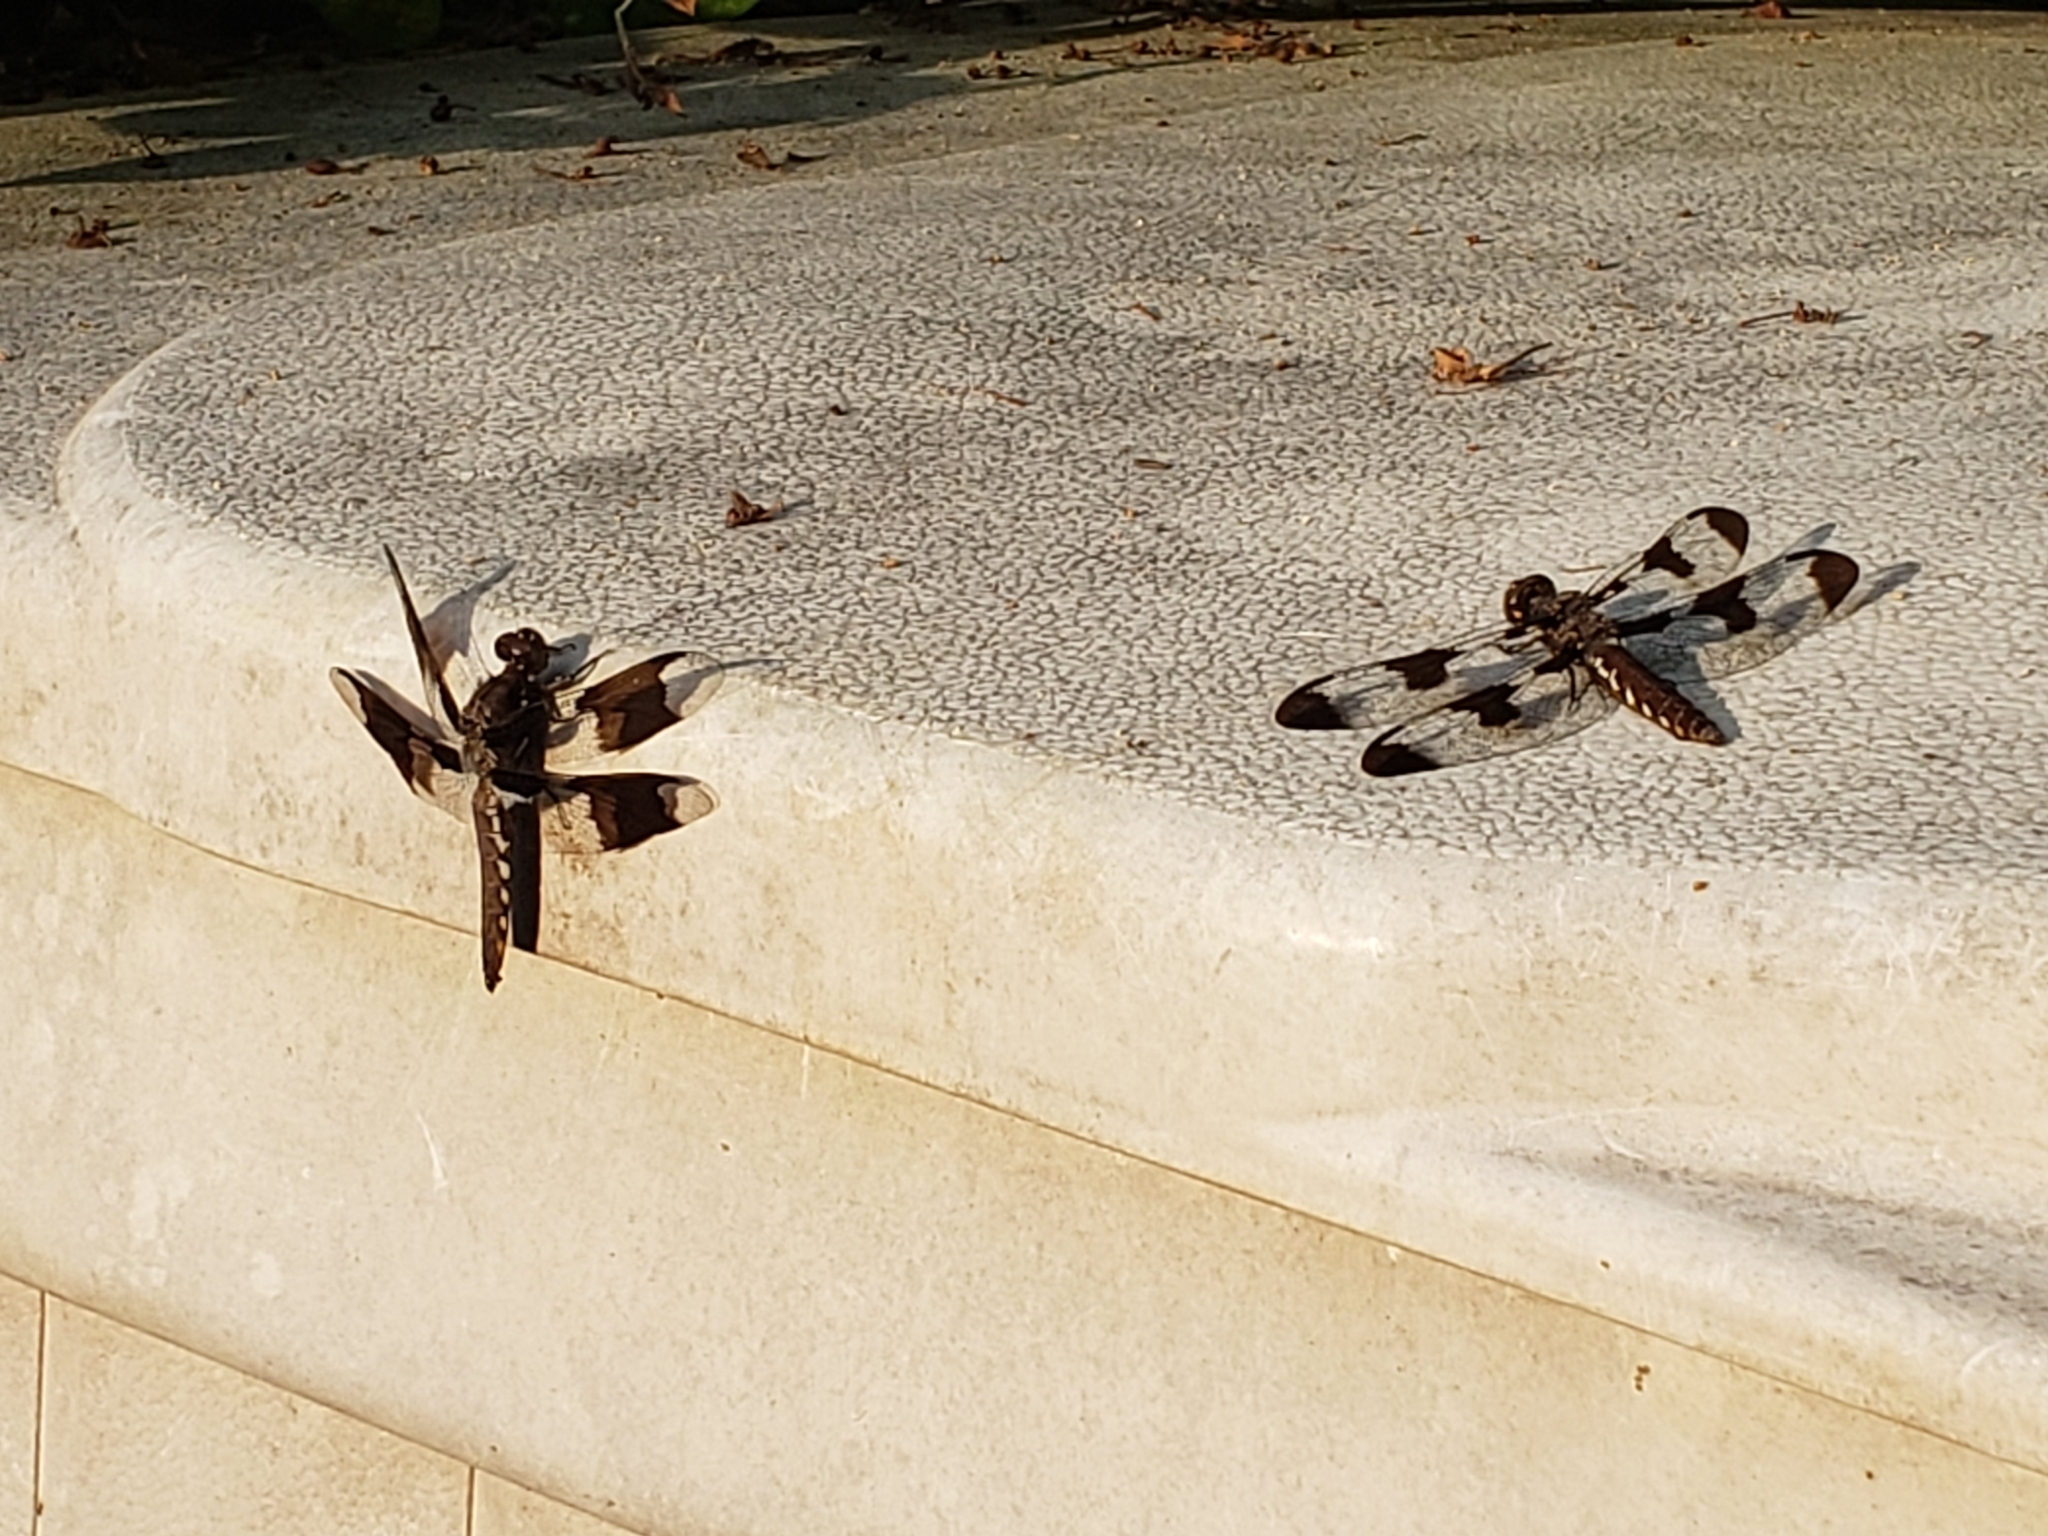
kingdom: Animalia
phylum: Arthropoda
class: Insecta
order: Odonata
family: Libellulidae
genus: Plathemis
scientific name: Plathemis lydia
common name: Common whitetail
